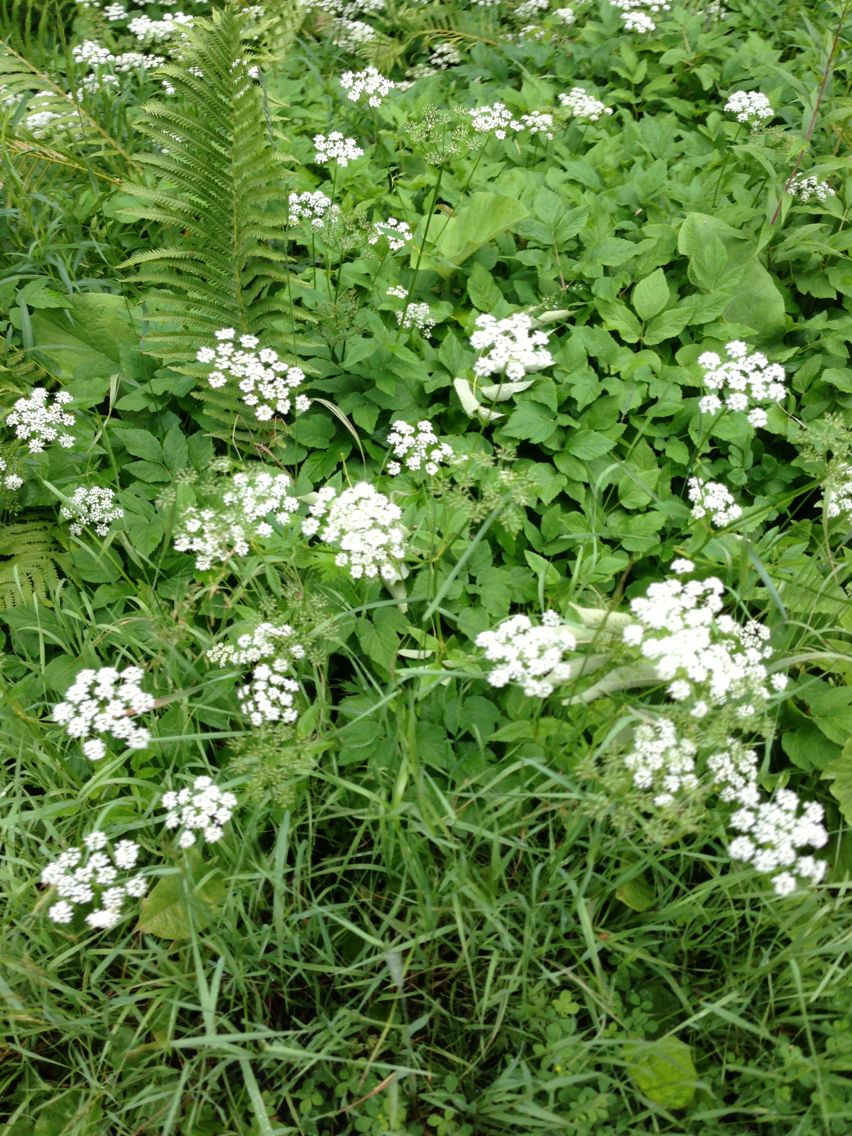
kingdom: Plantae
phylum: Tracheophyta
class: Magnoliopsida
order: Apiales
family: Apiaceae
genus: Aegopodium
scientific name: Aegopodium podagraria
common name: Ground-elder
